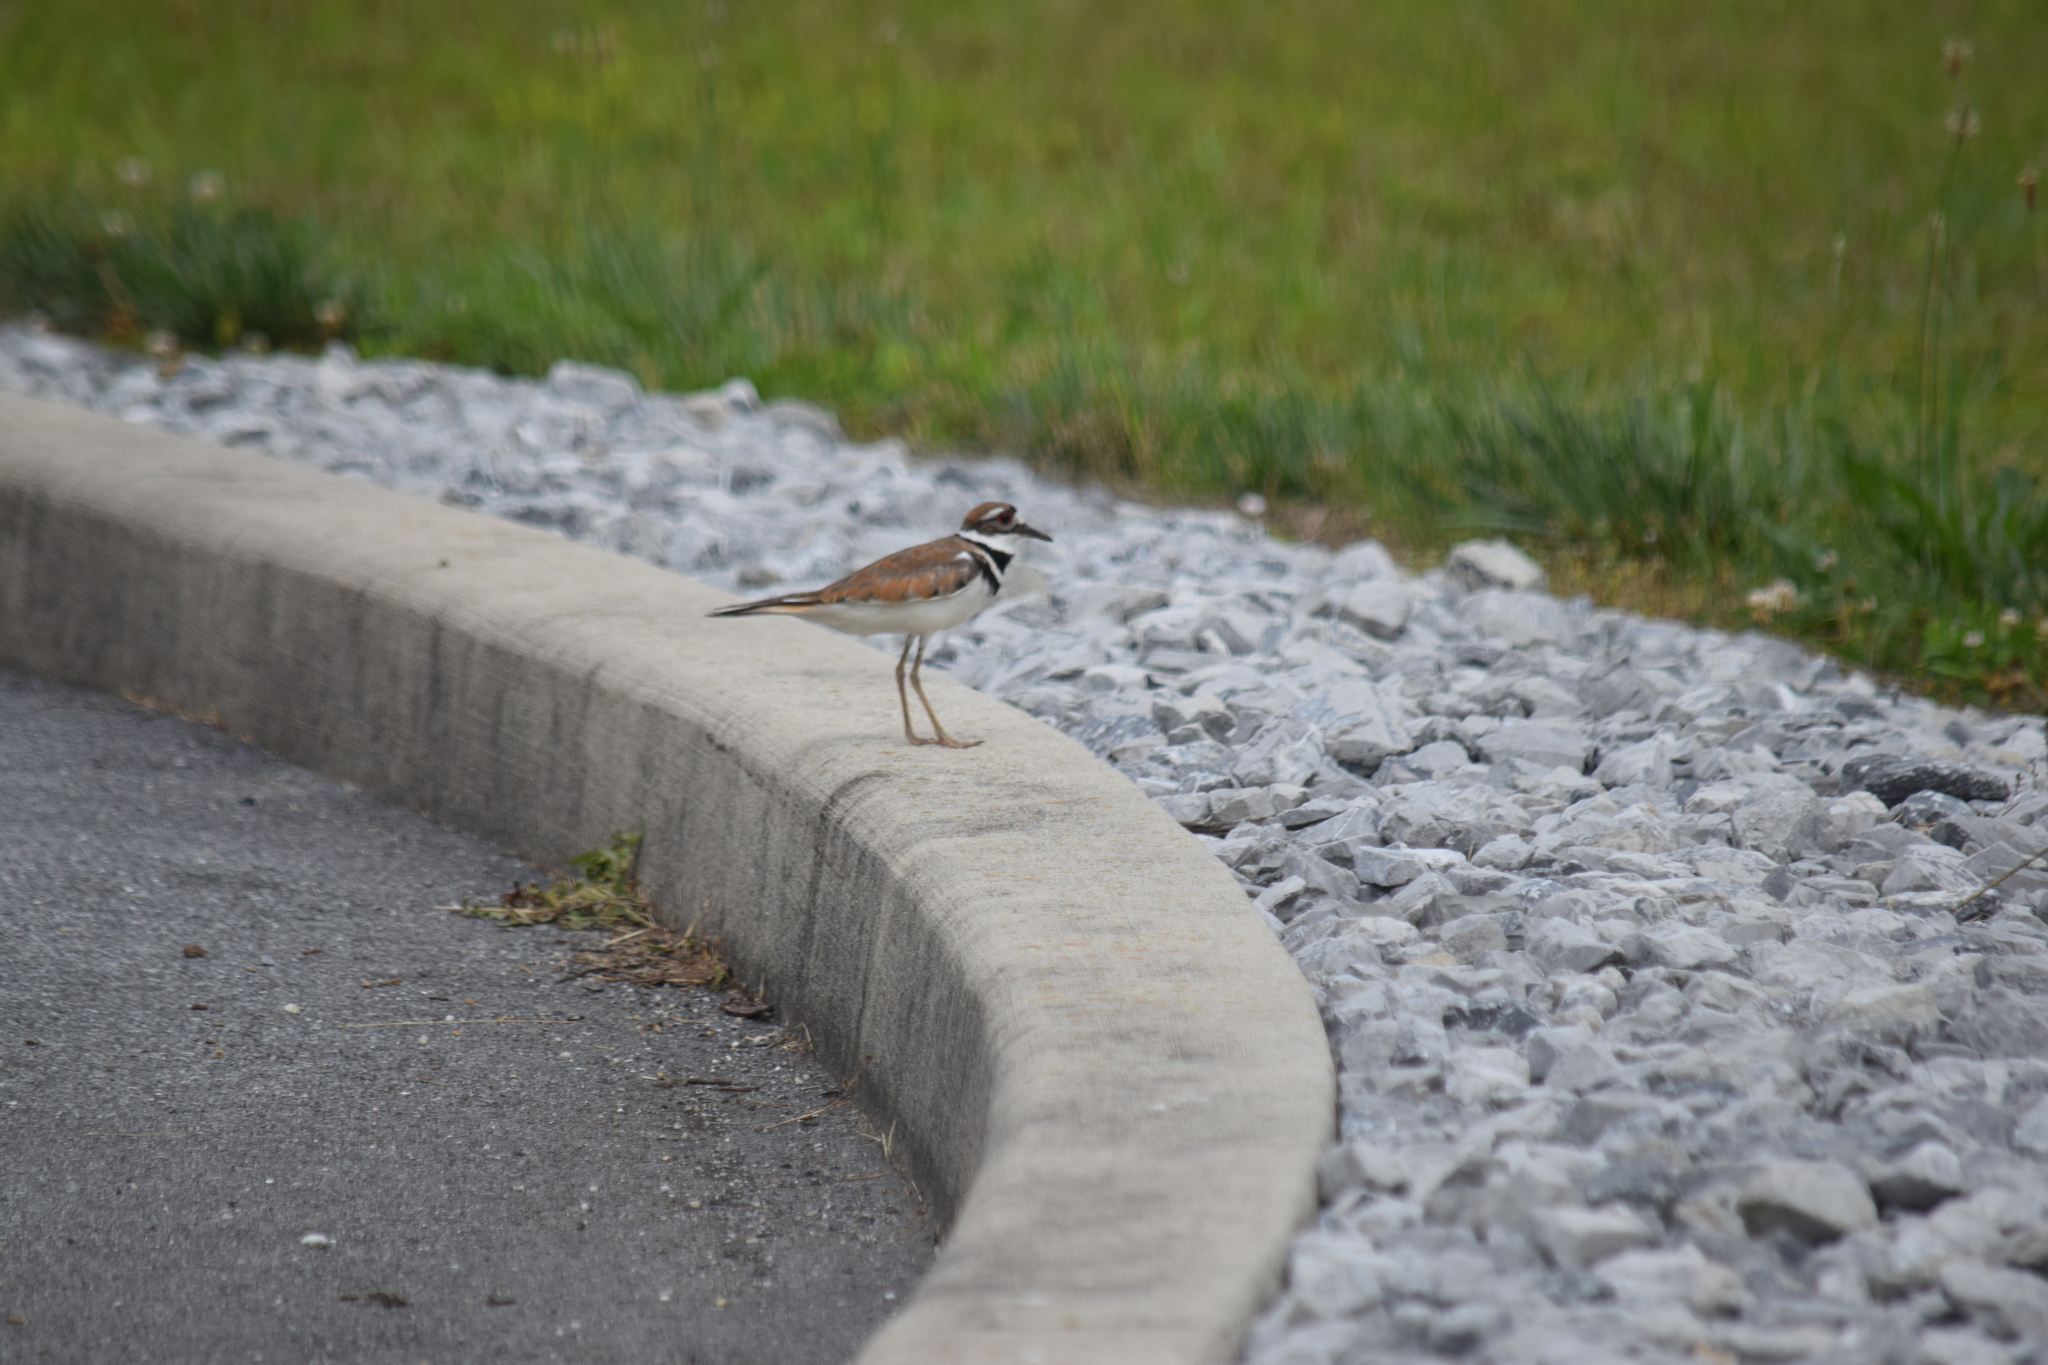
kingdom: Animalia
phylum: Chordata
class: Aves
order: Charadriiformes
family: Charadriidae
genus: Charadrius
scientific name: Charadrius vociferus
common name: Killdeer
